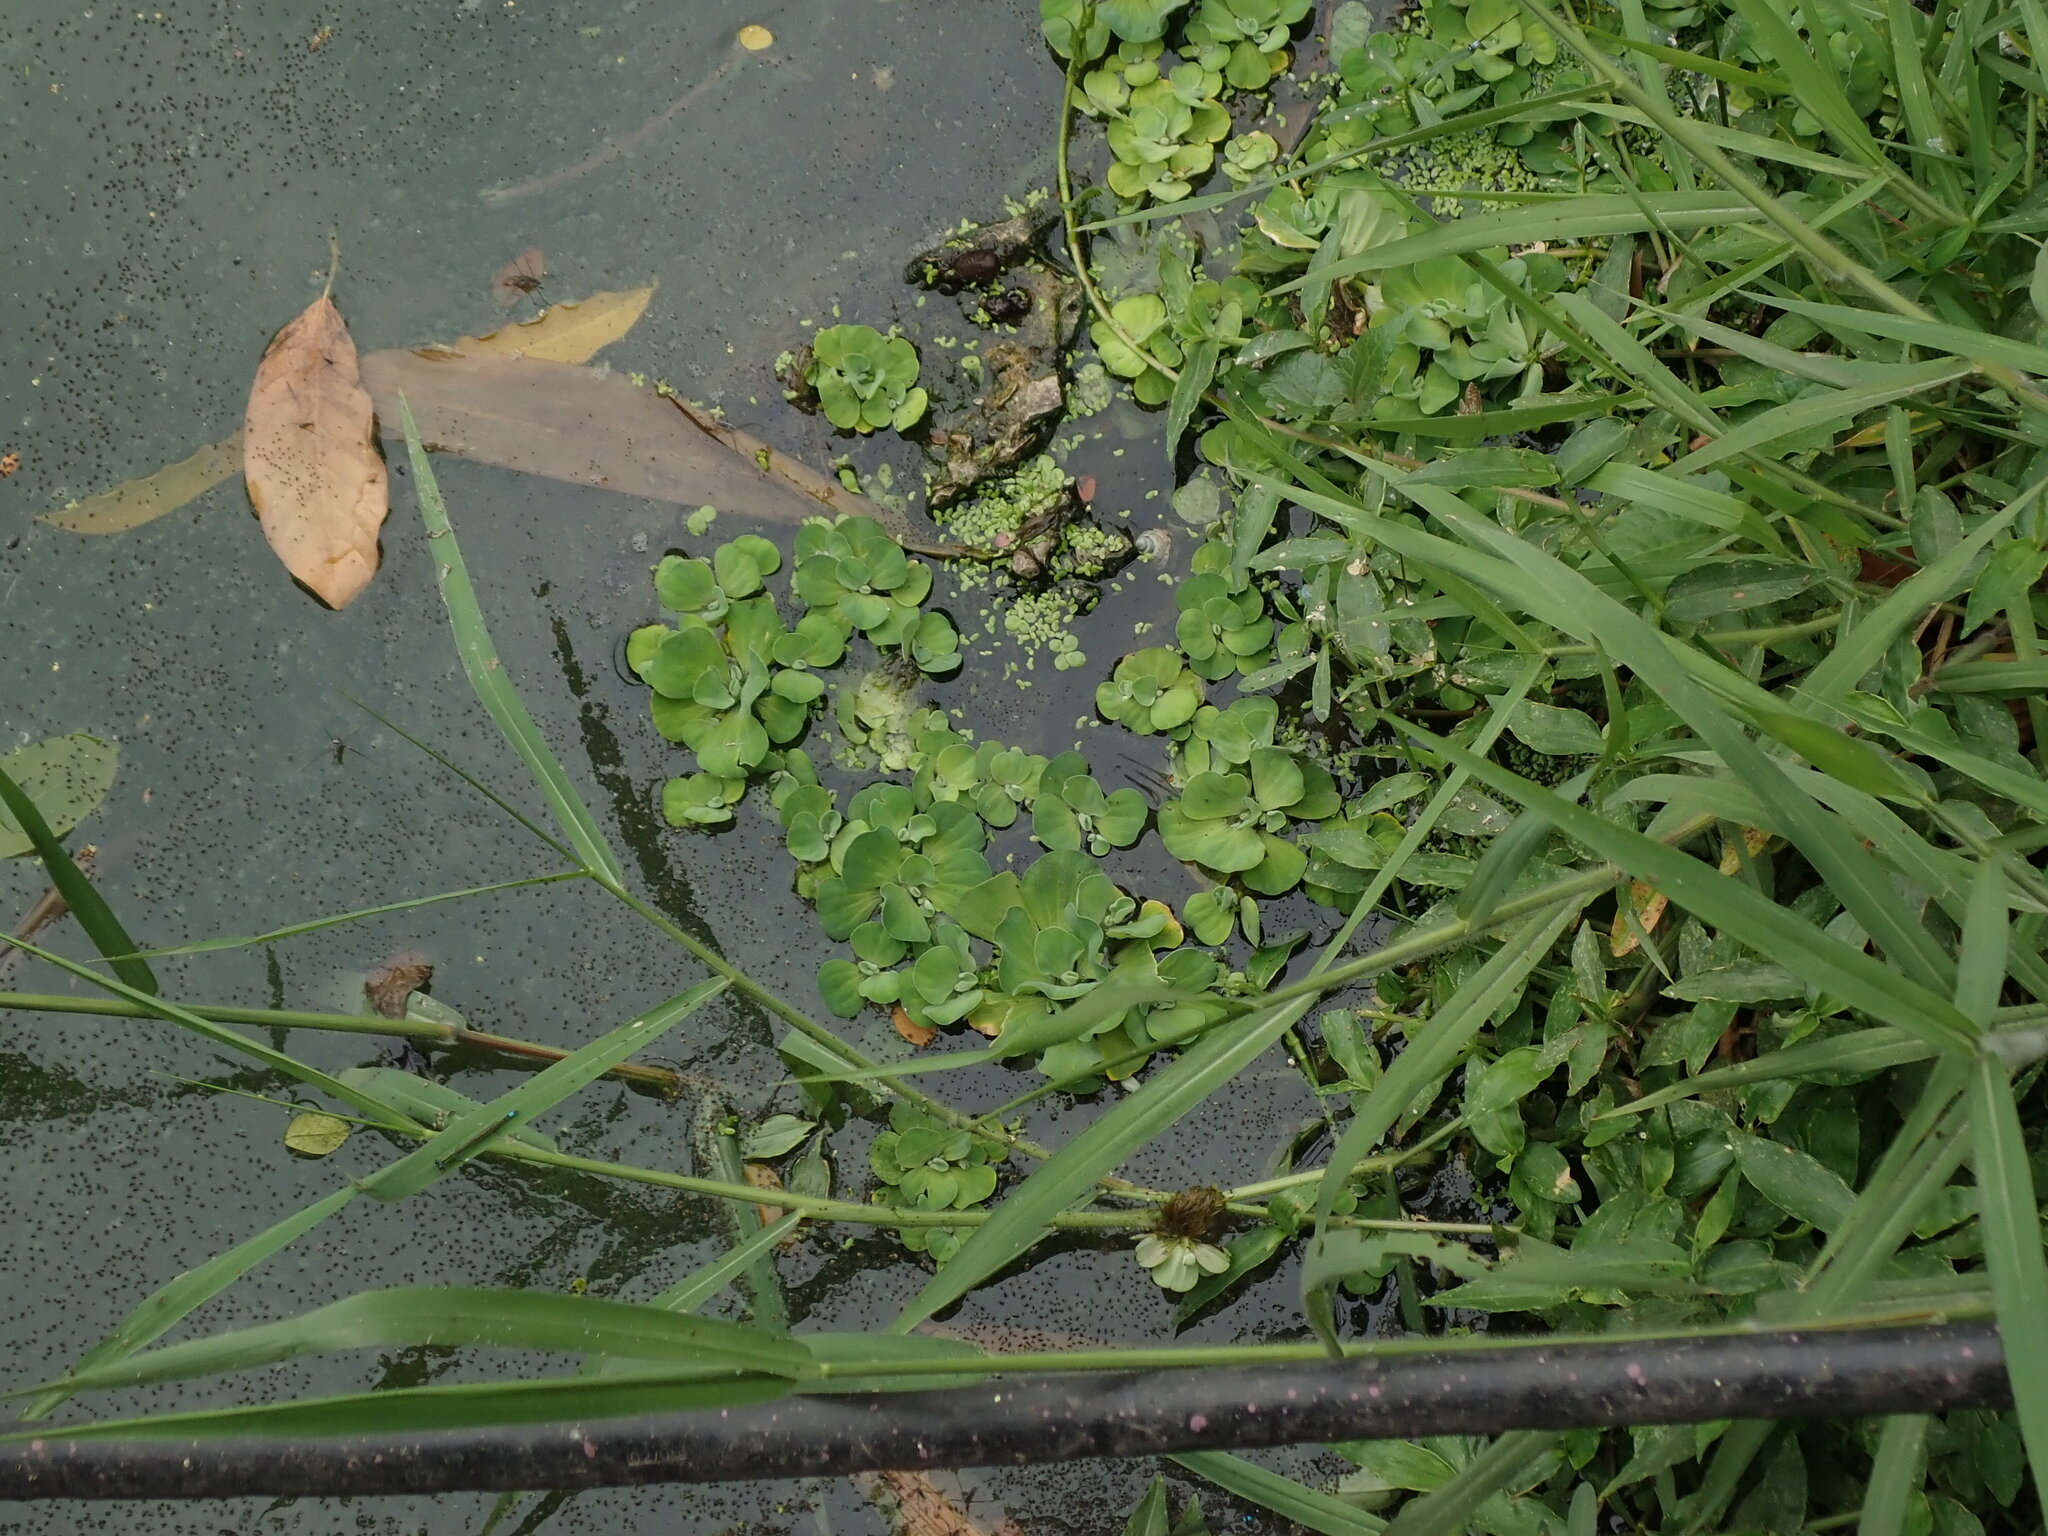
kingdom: Plantae
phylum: Tracheophyta
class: Liliopsida
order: Alismatales
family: Araceae
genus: Pistia
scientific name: Pistia stratiotes
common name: Water lettuce
